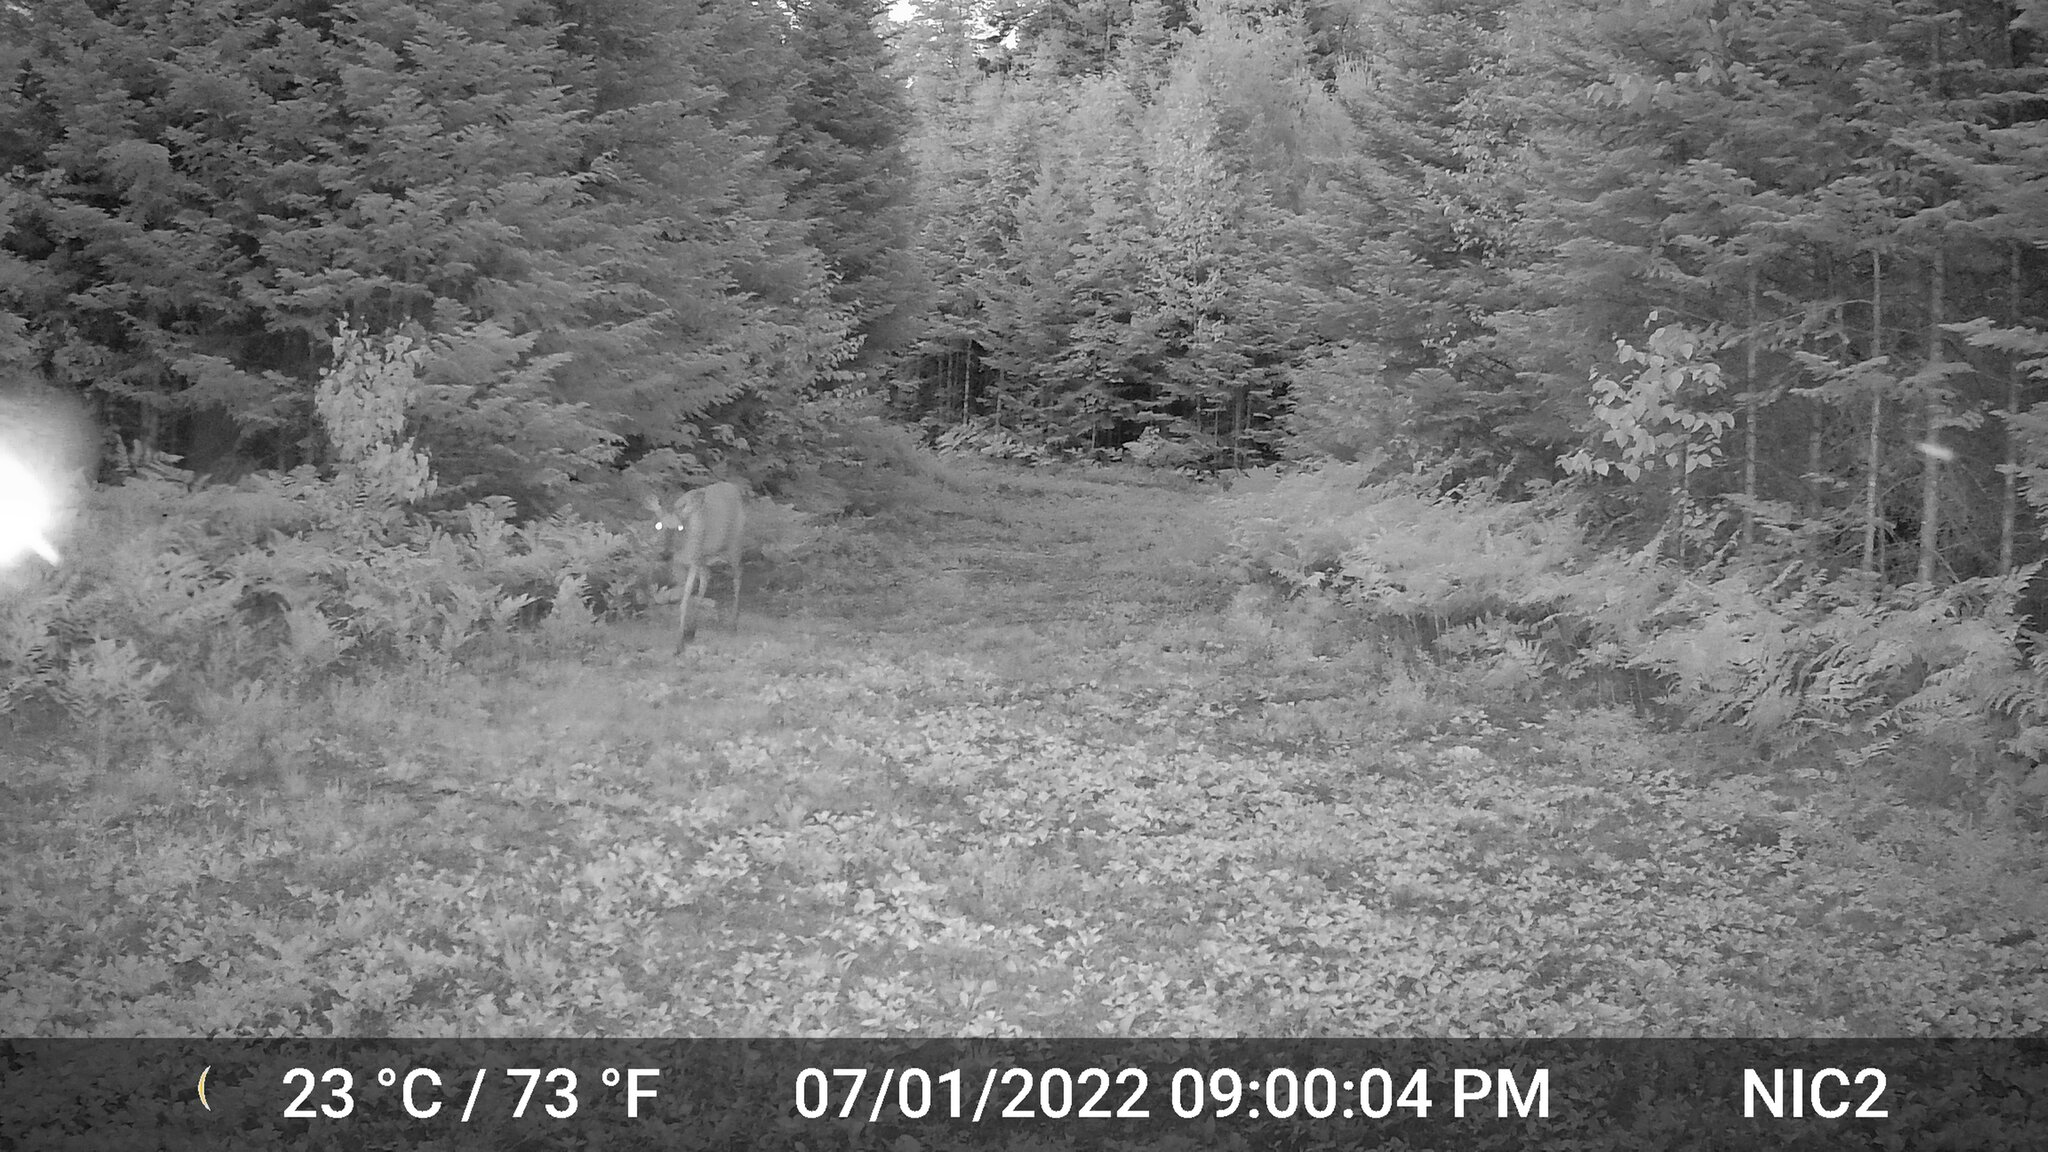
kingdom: Animalia
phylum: Chordata
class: Mammalia
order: Artiodactyla
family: Cervidae
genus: Odocoileus
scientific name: Odocoileus virginianus
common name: White-tailed deer
